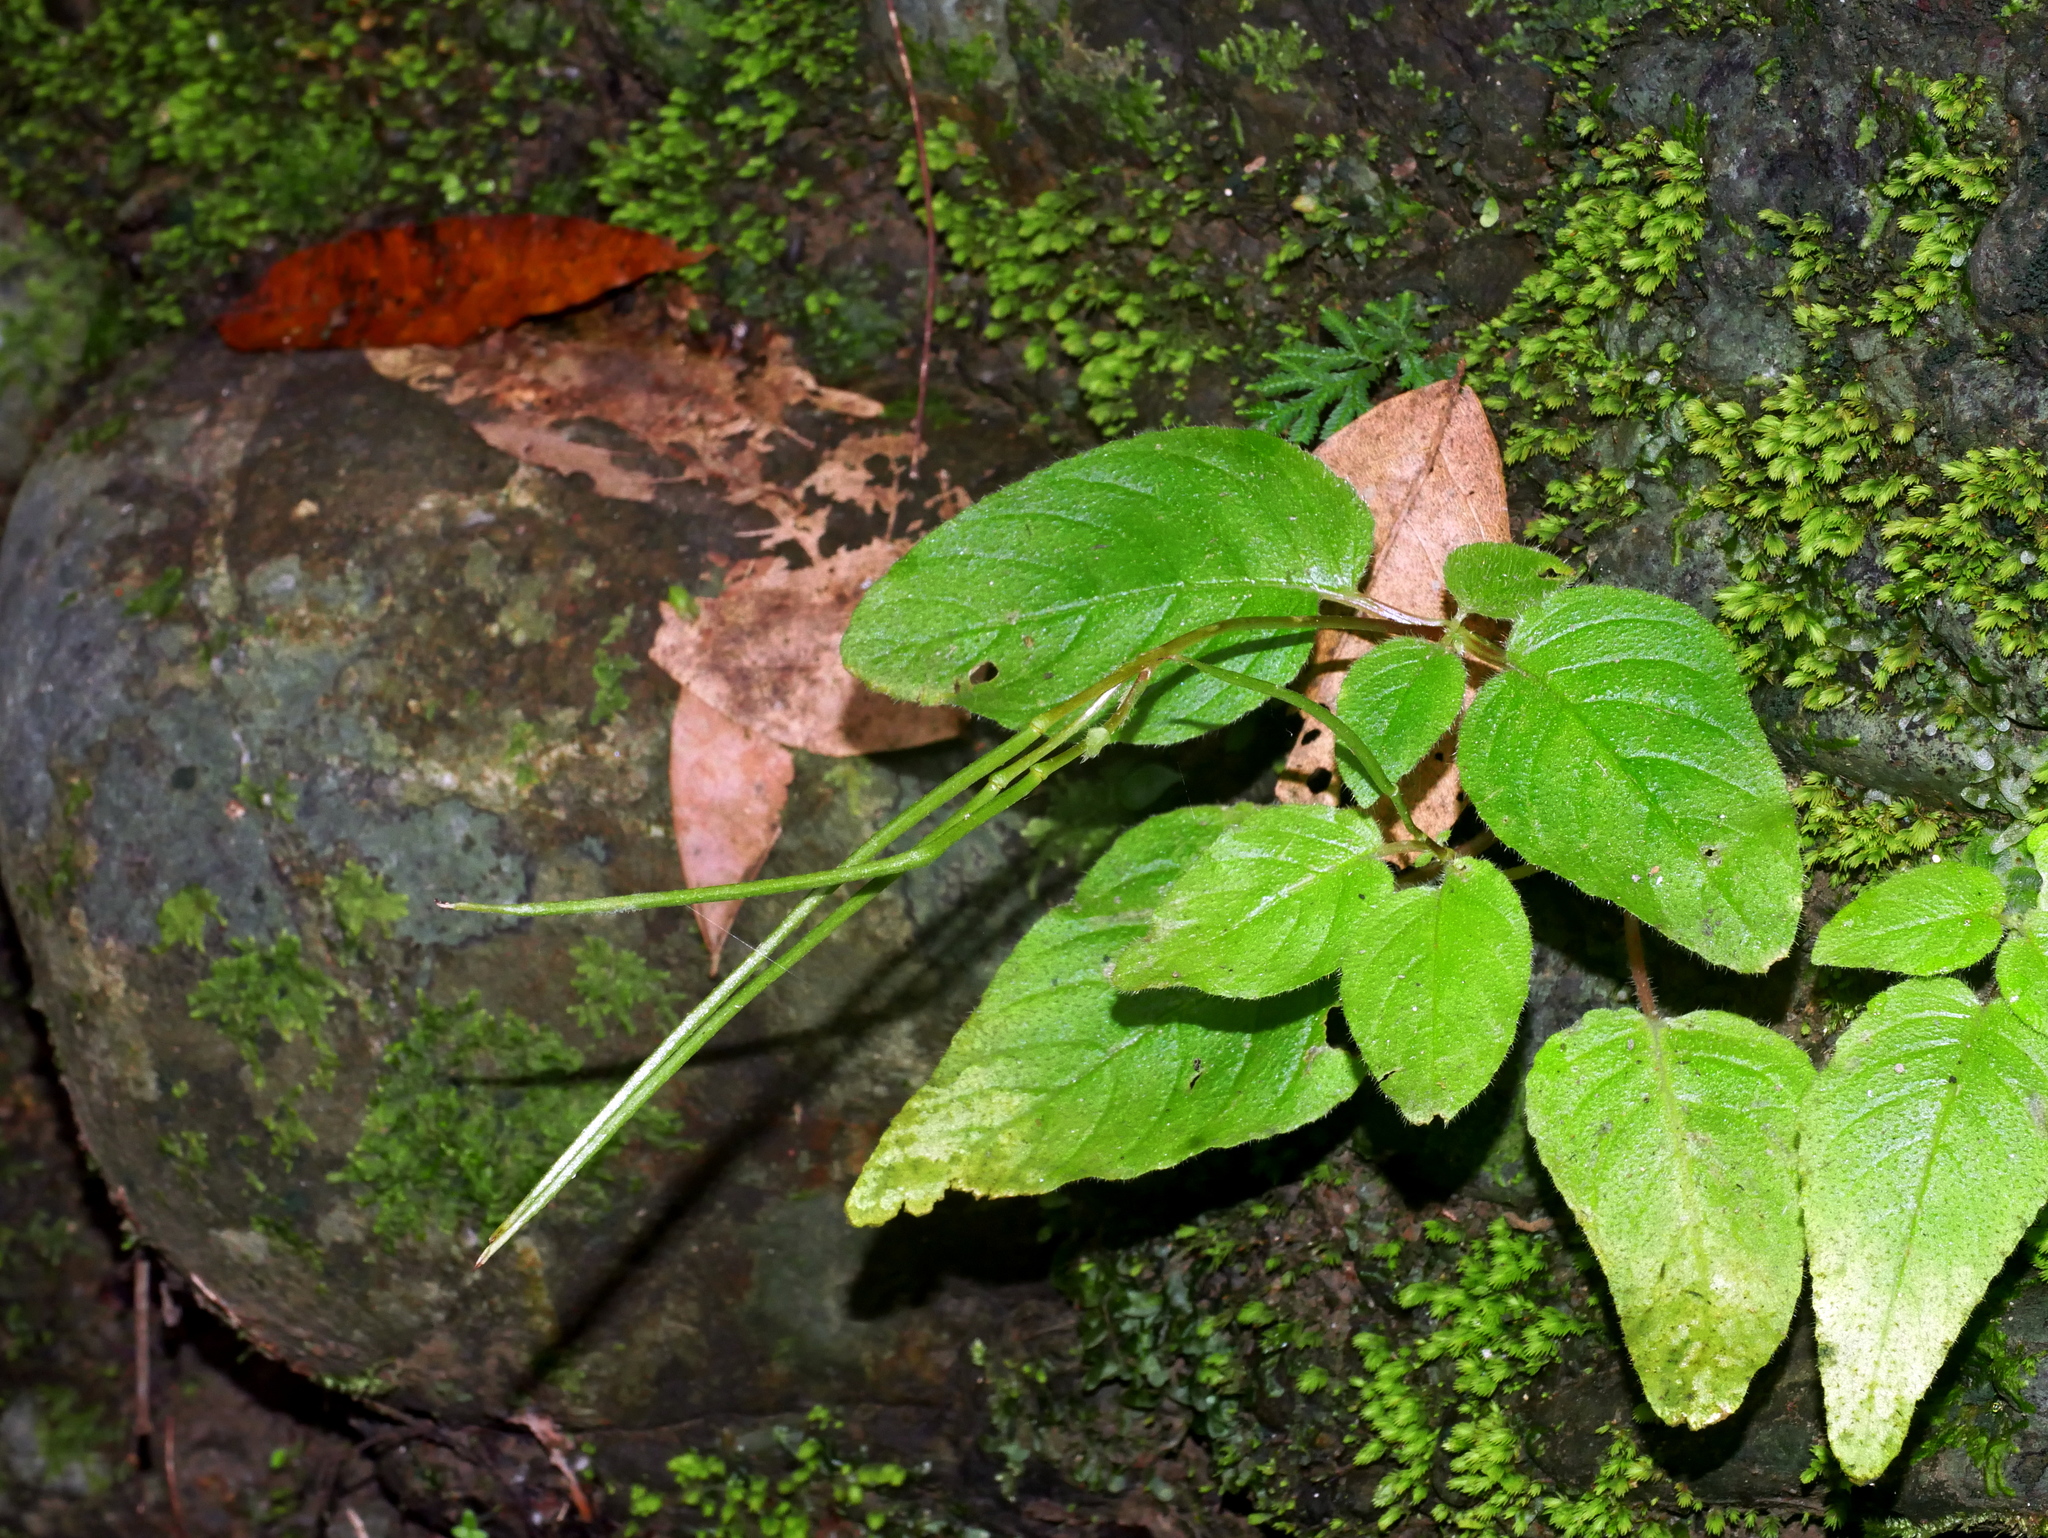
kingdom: Plantae
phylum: Tracheophyta
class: Magnoliopsida
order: Lamiales
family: Gesneriaceae
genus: Henckelia
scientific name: Henckelia anachoreta
